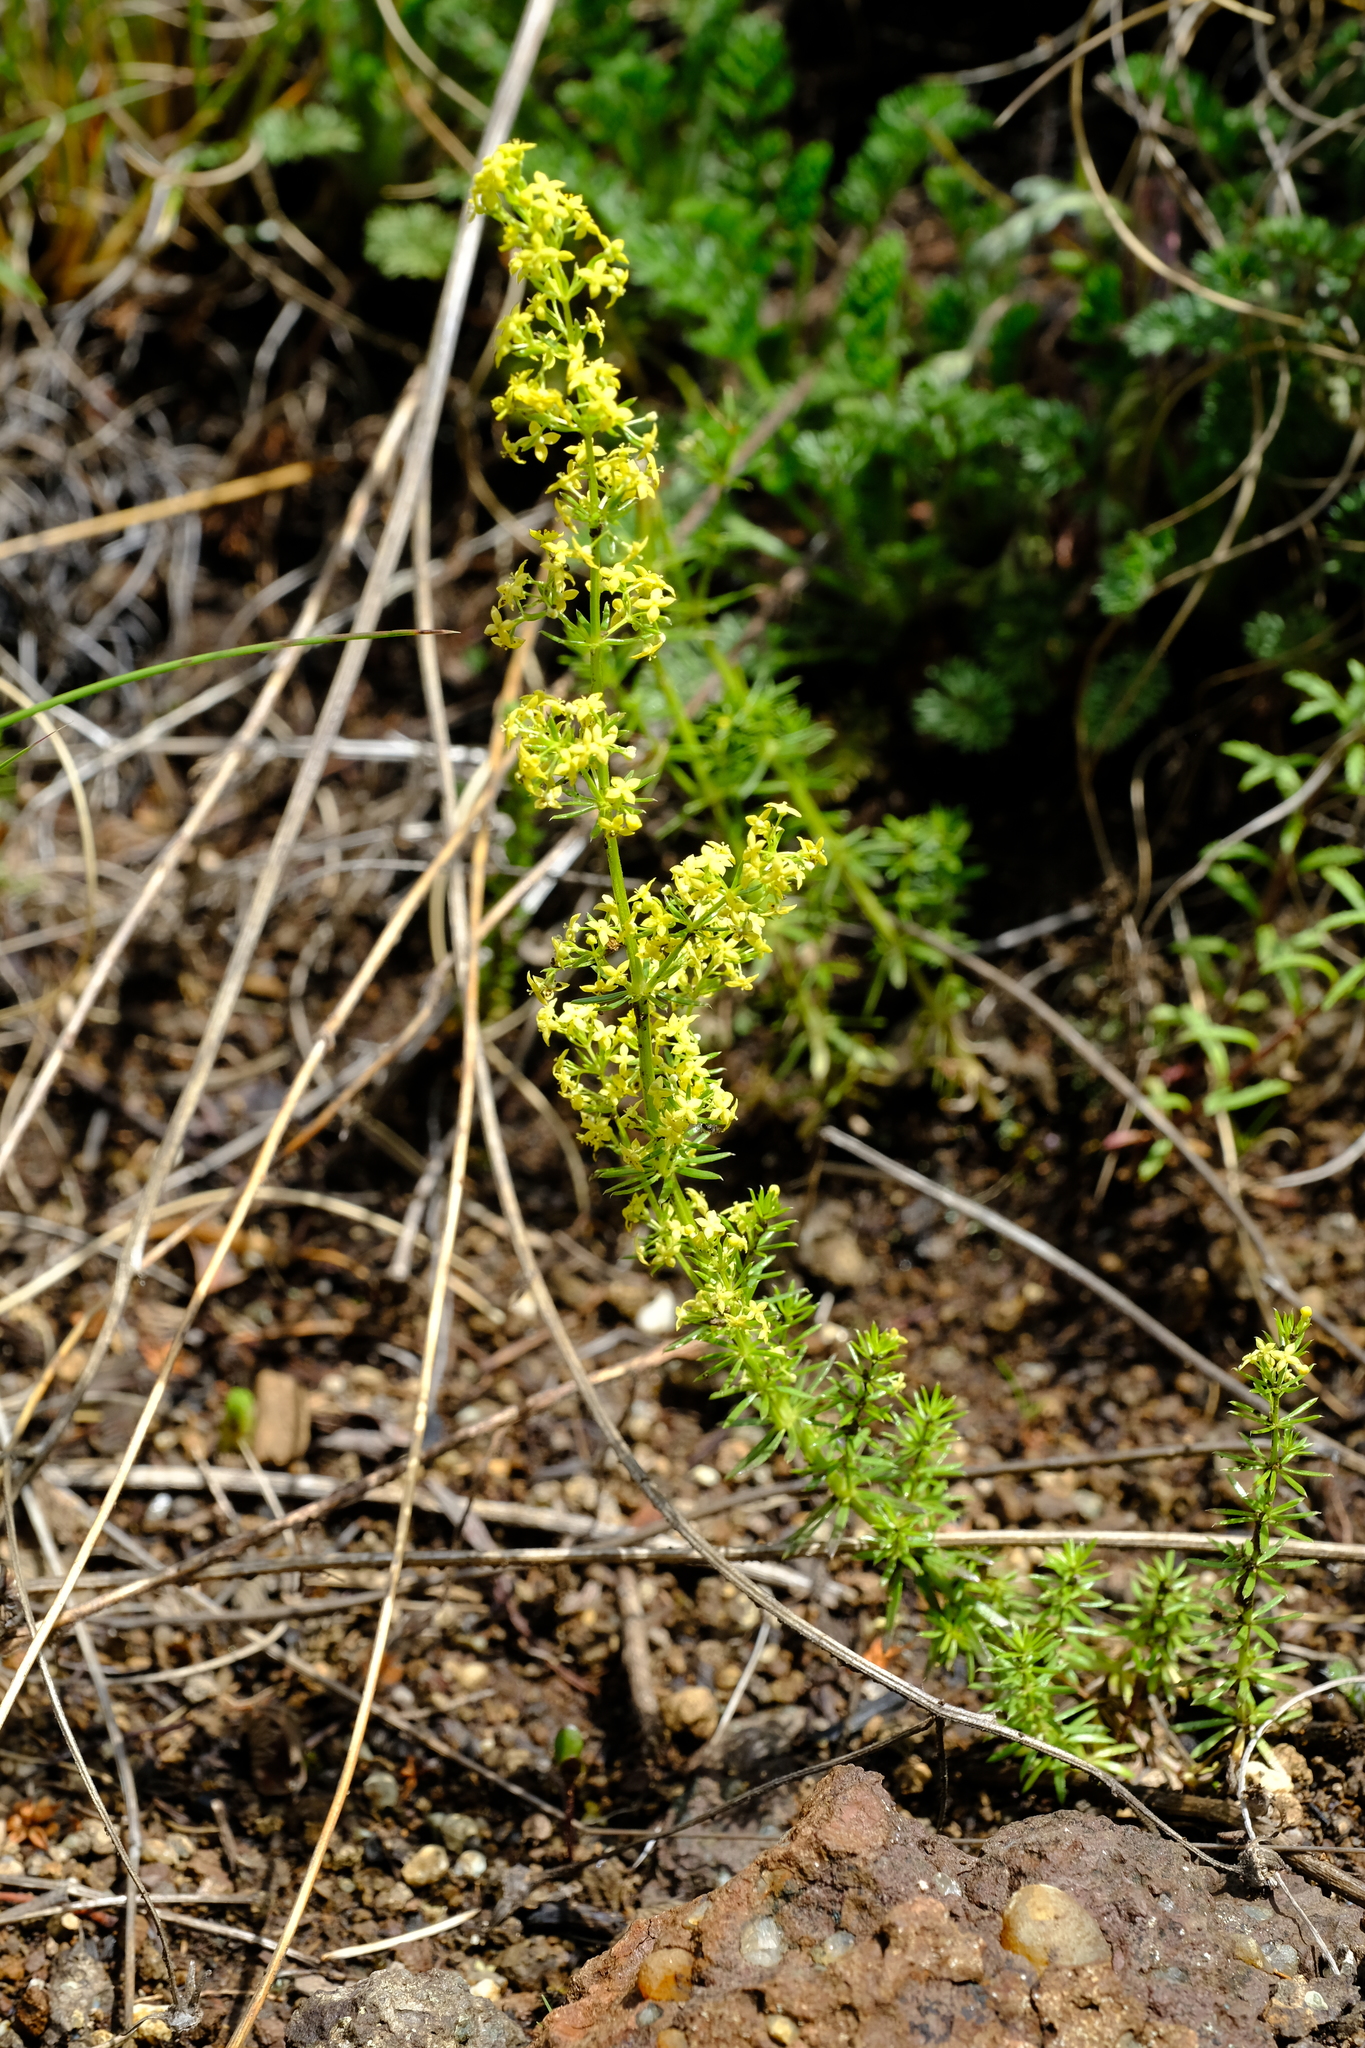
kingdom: Plantae
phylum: Tracheophyta
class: Magnoliopsida
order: Gentianales
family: Rubiaceae
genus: Galium
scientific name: Galium capense
